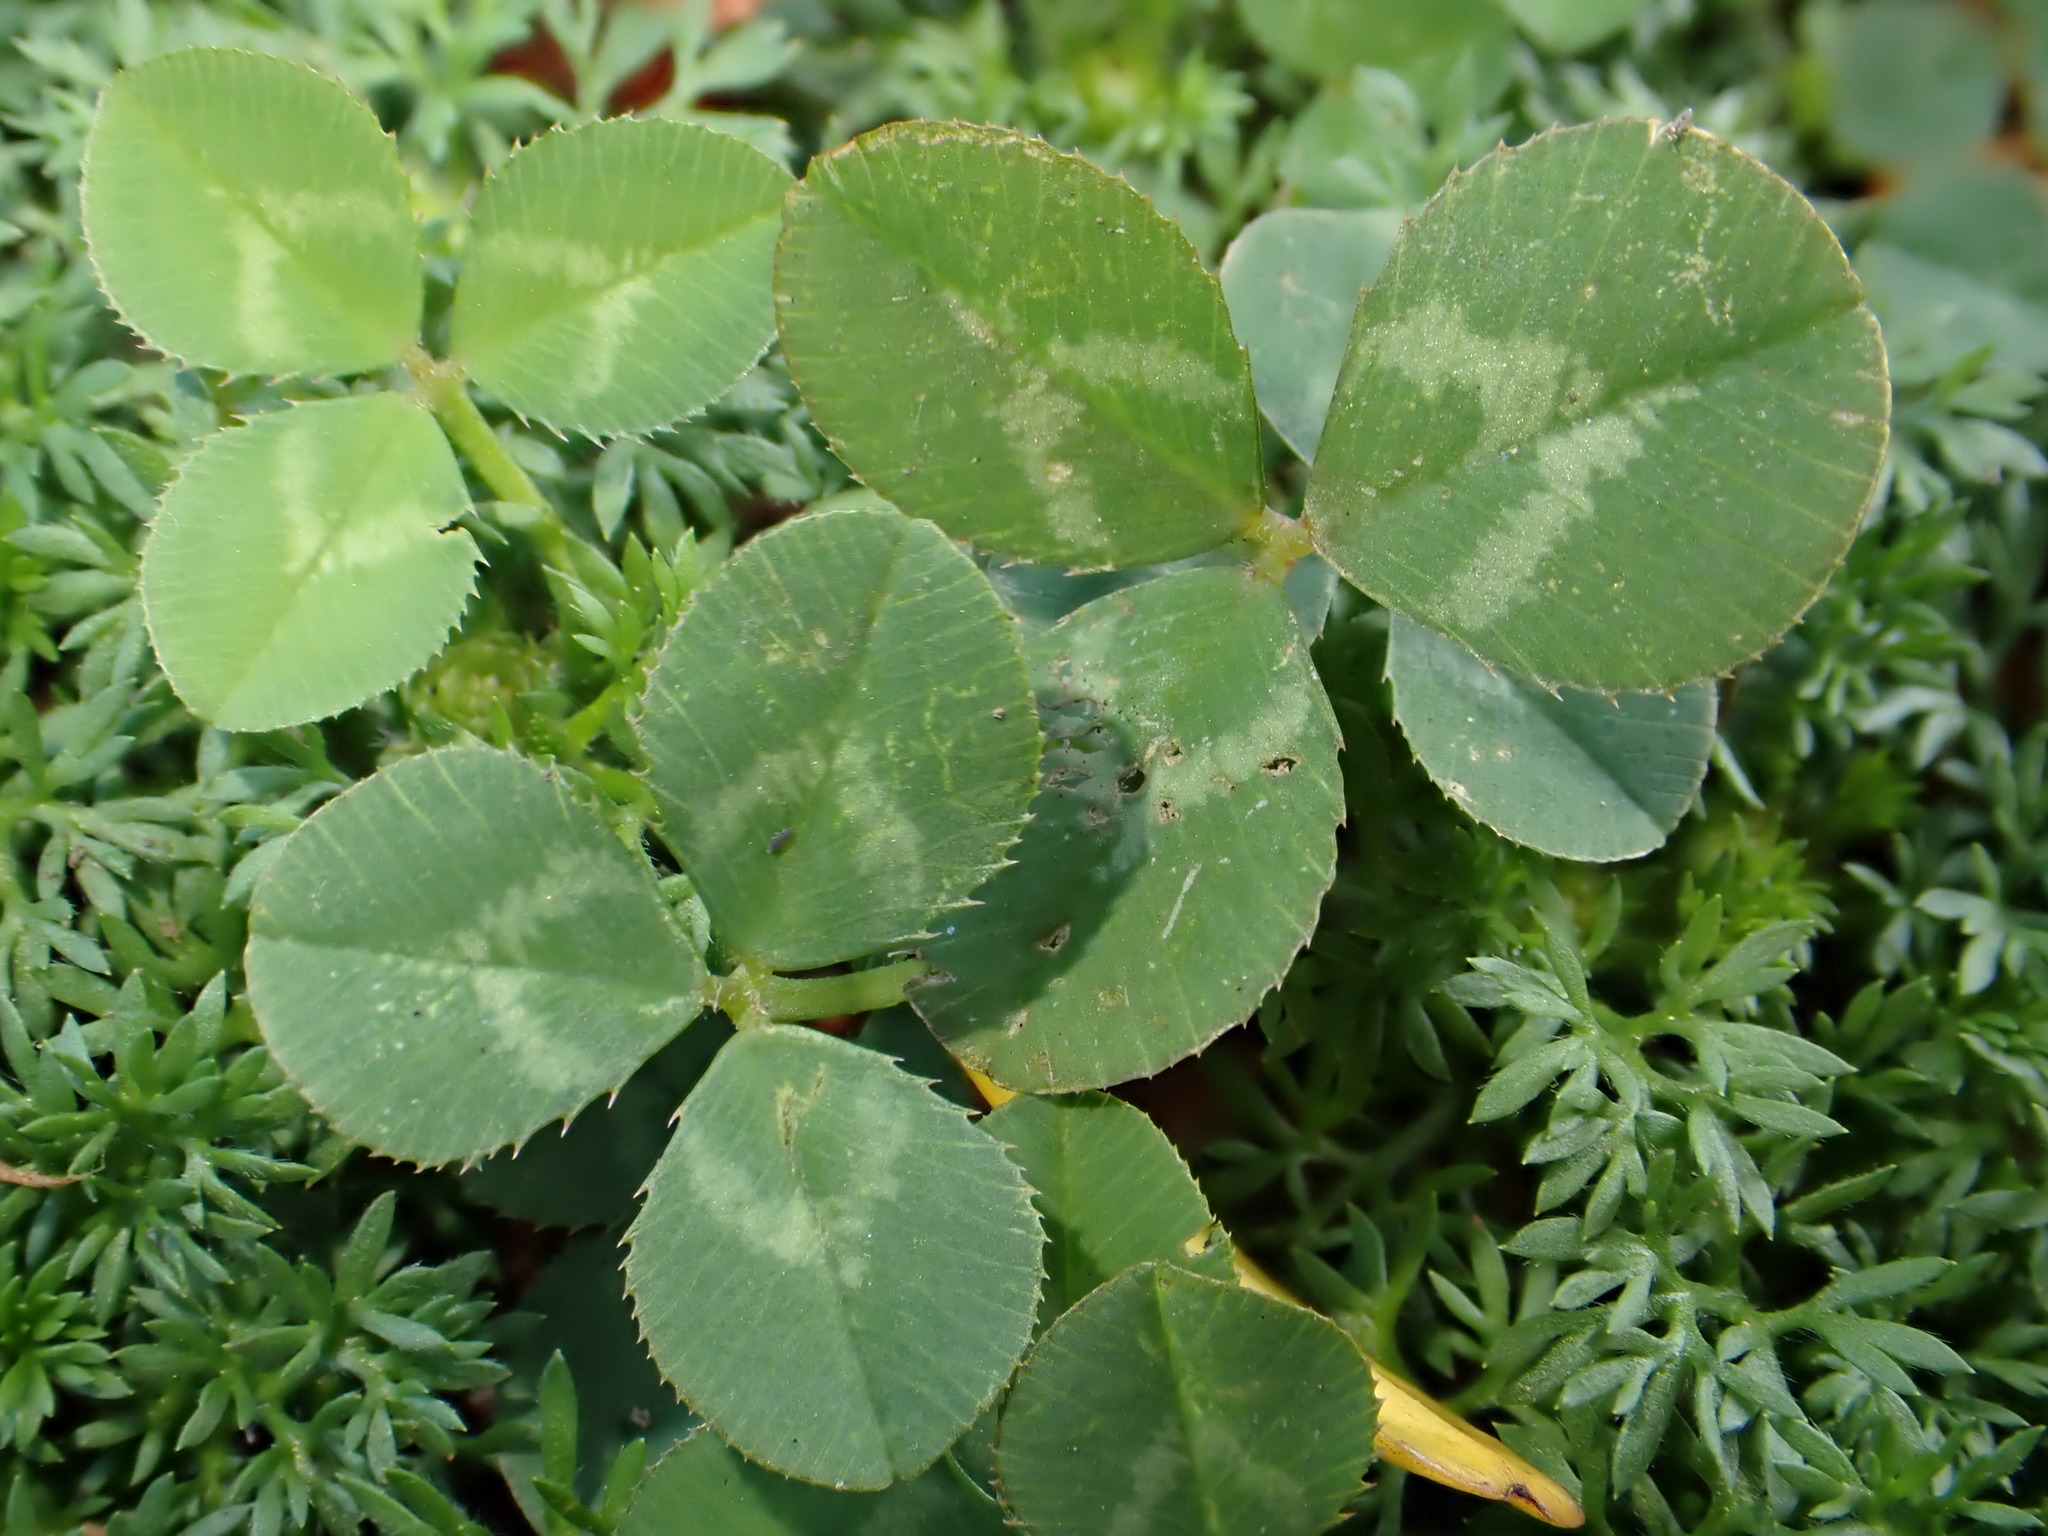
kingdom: Plantae
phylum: Tracheophyta
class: Magnoliopsida
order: Fabales
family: Fabaceae
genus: Trifolium
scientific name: Trifolium repens
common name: White clover
